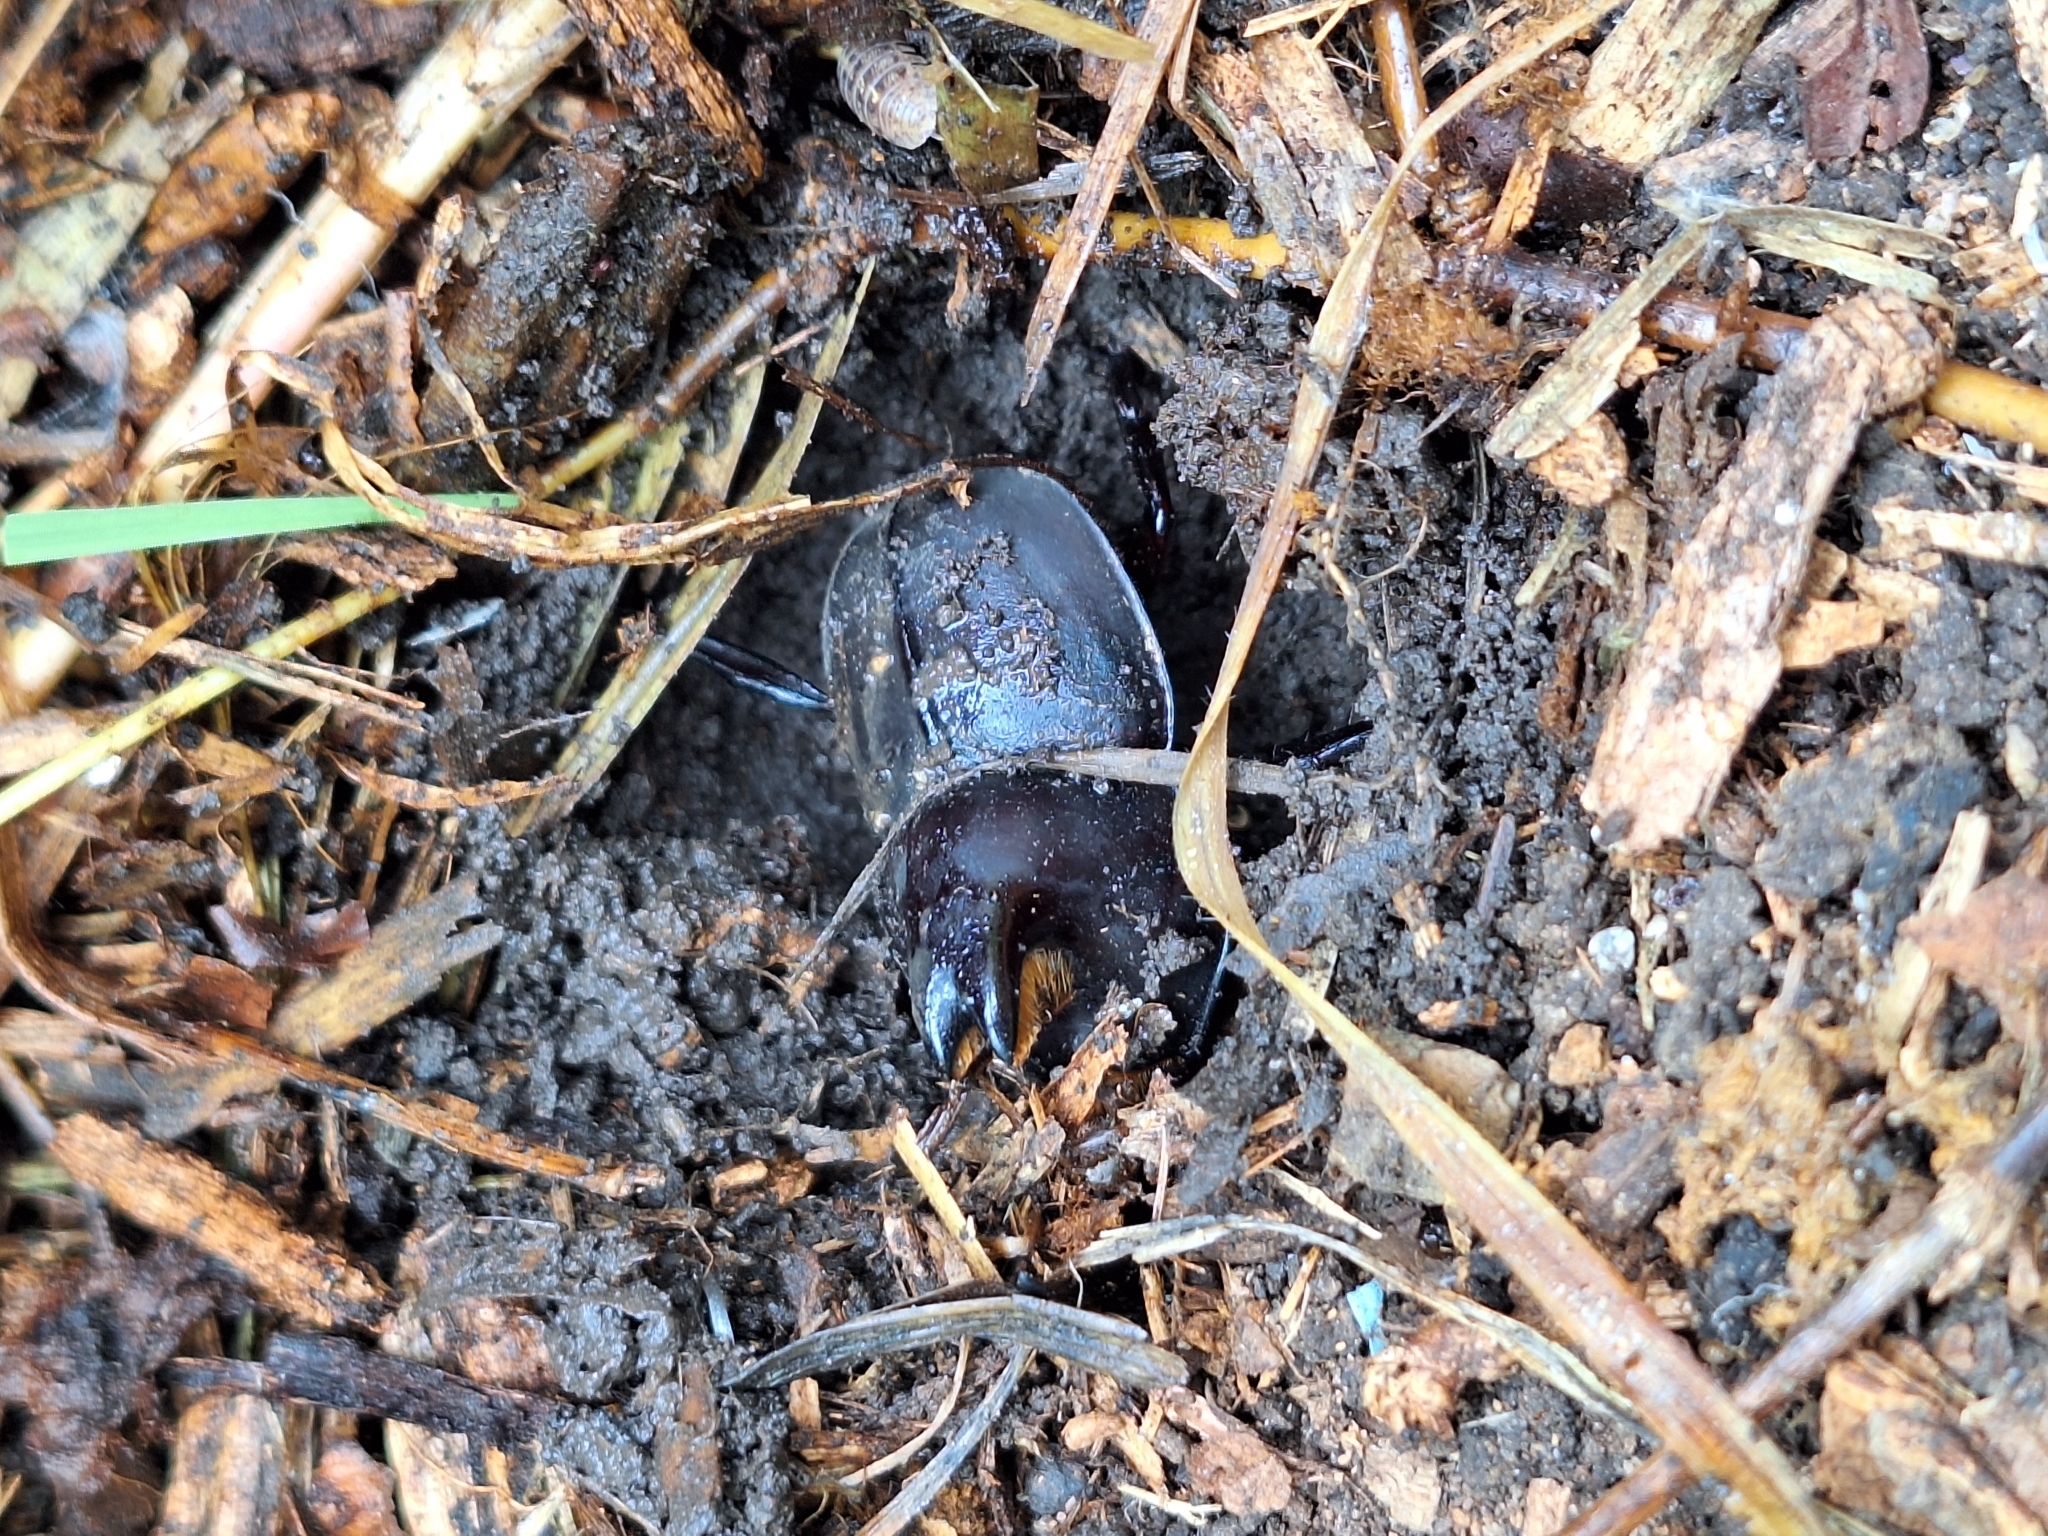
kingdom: Animalia
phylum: Arthropoda
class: Insecta
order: Coleoptera
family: Scarabaeidae
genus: Diloboderus
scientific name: Diloboderus abderus
